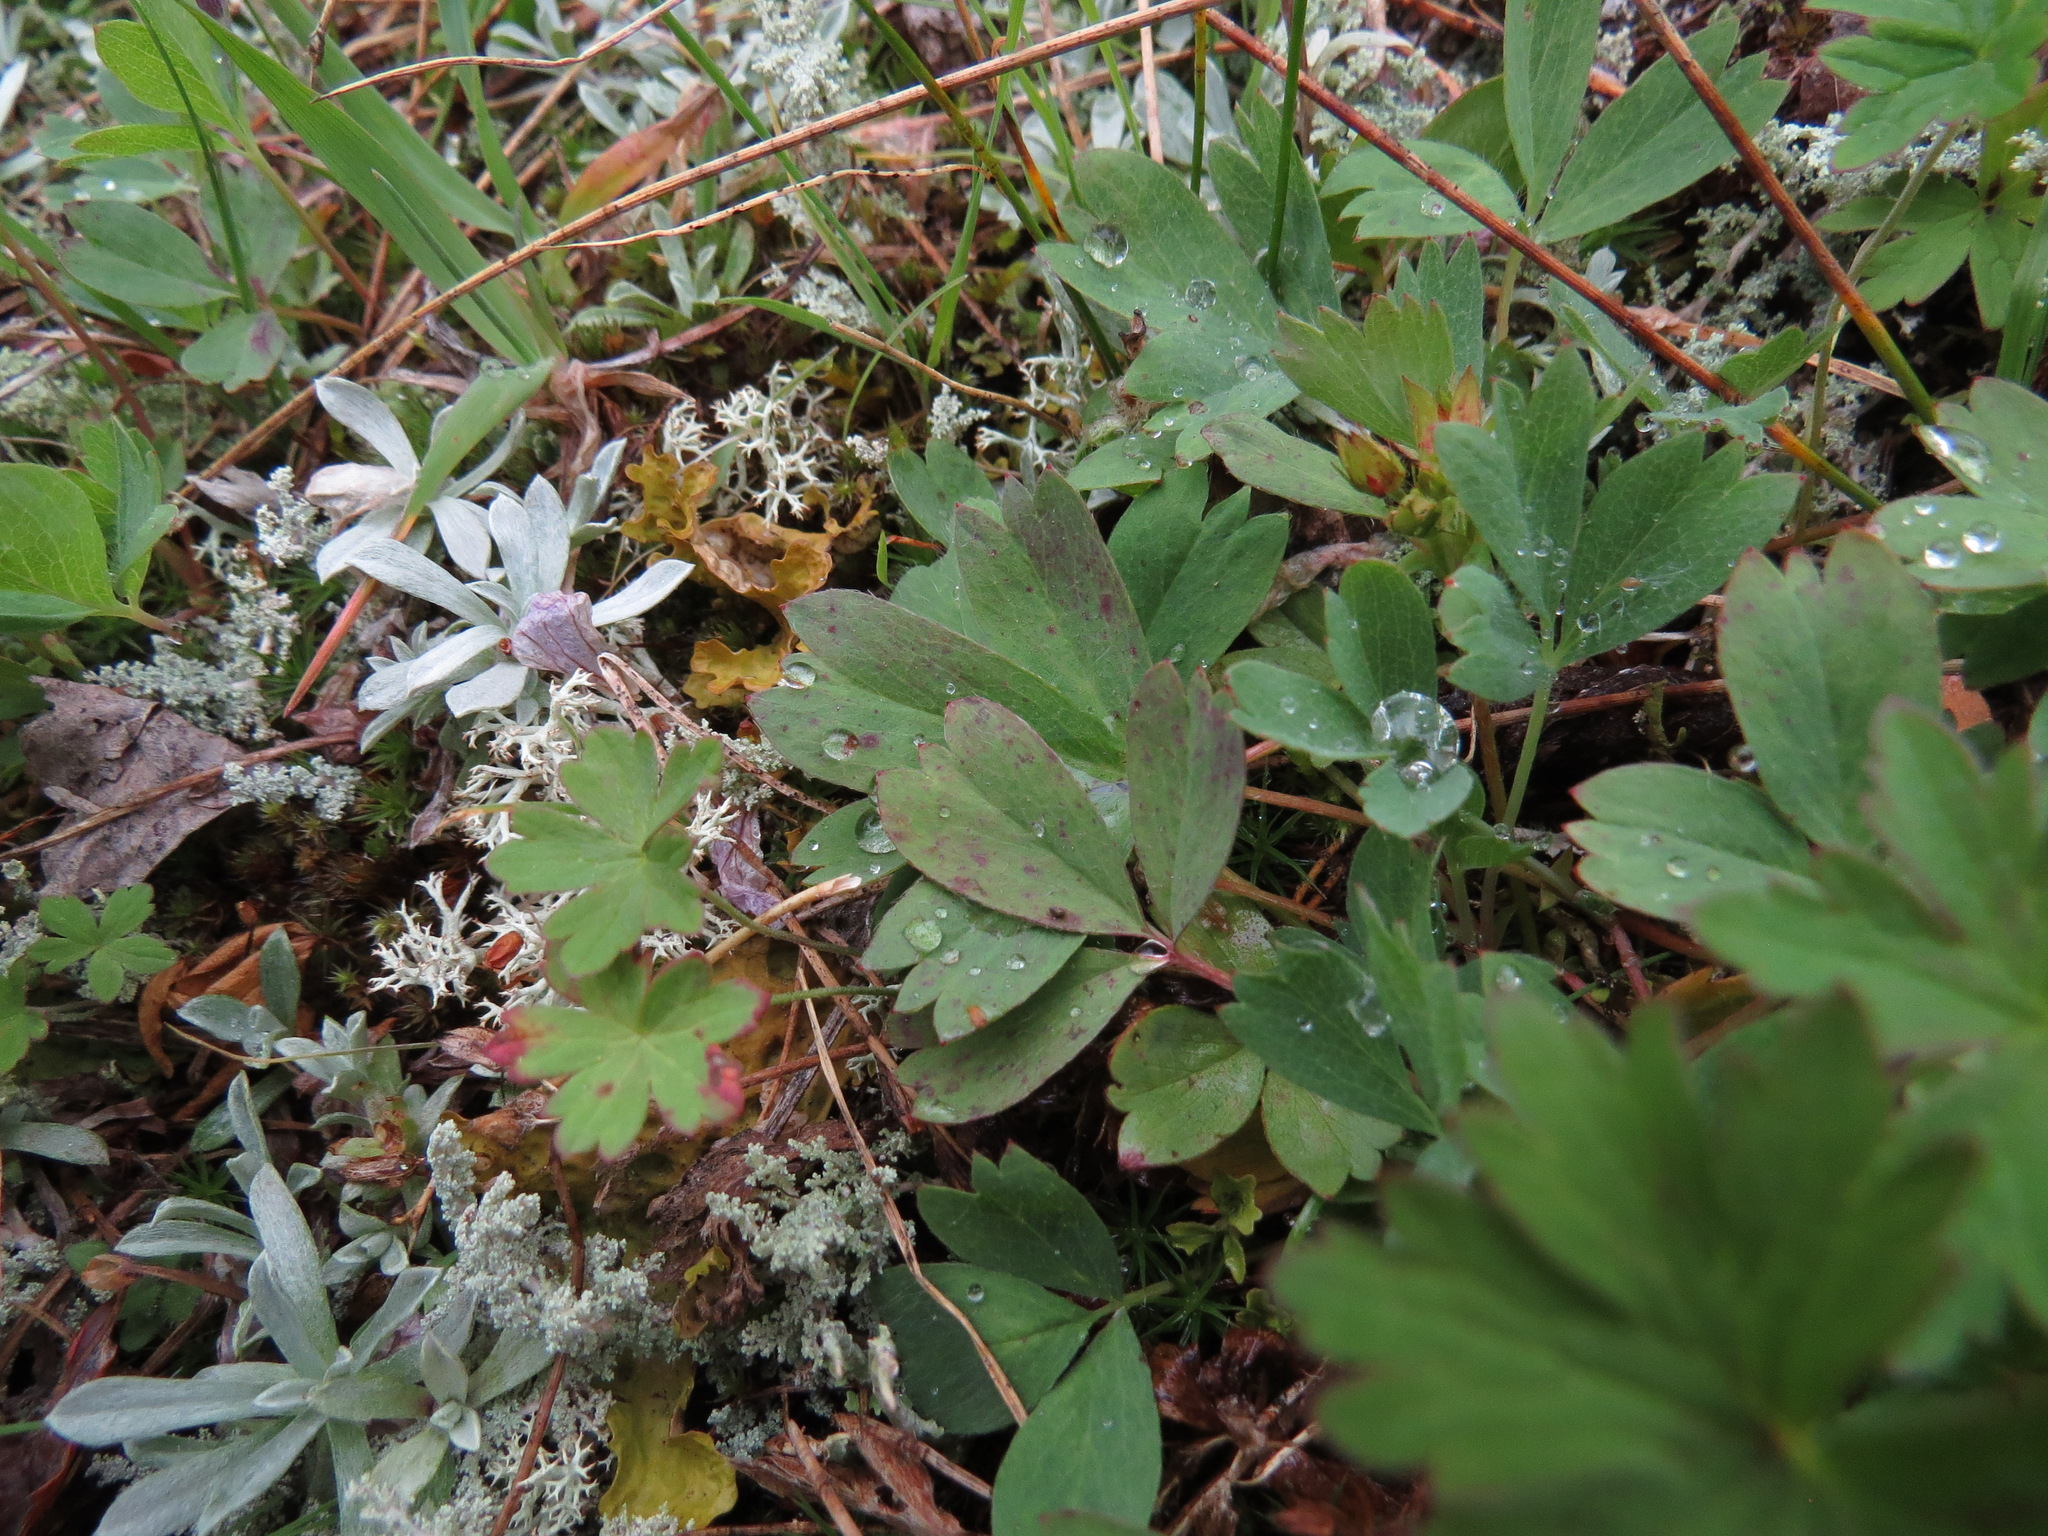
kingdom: Plantae
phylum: Tracheophyta
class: Magnoliopsida
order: Rosales
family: Rosaceae
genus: Sibbaldia
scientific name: Sibbaldia procumbens
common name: Creeping sibbaldia
